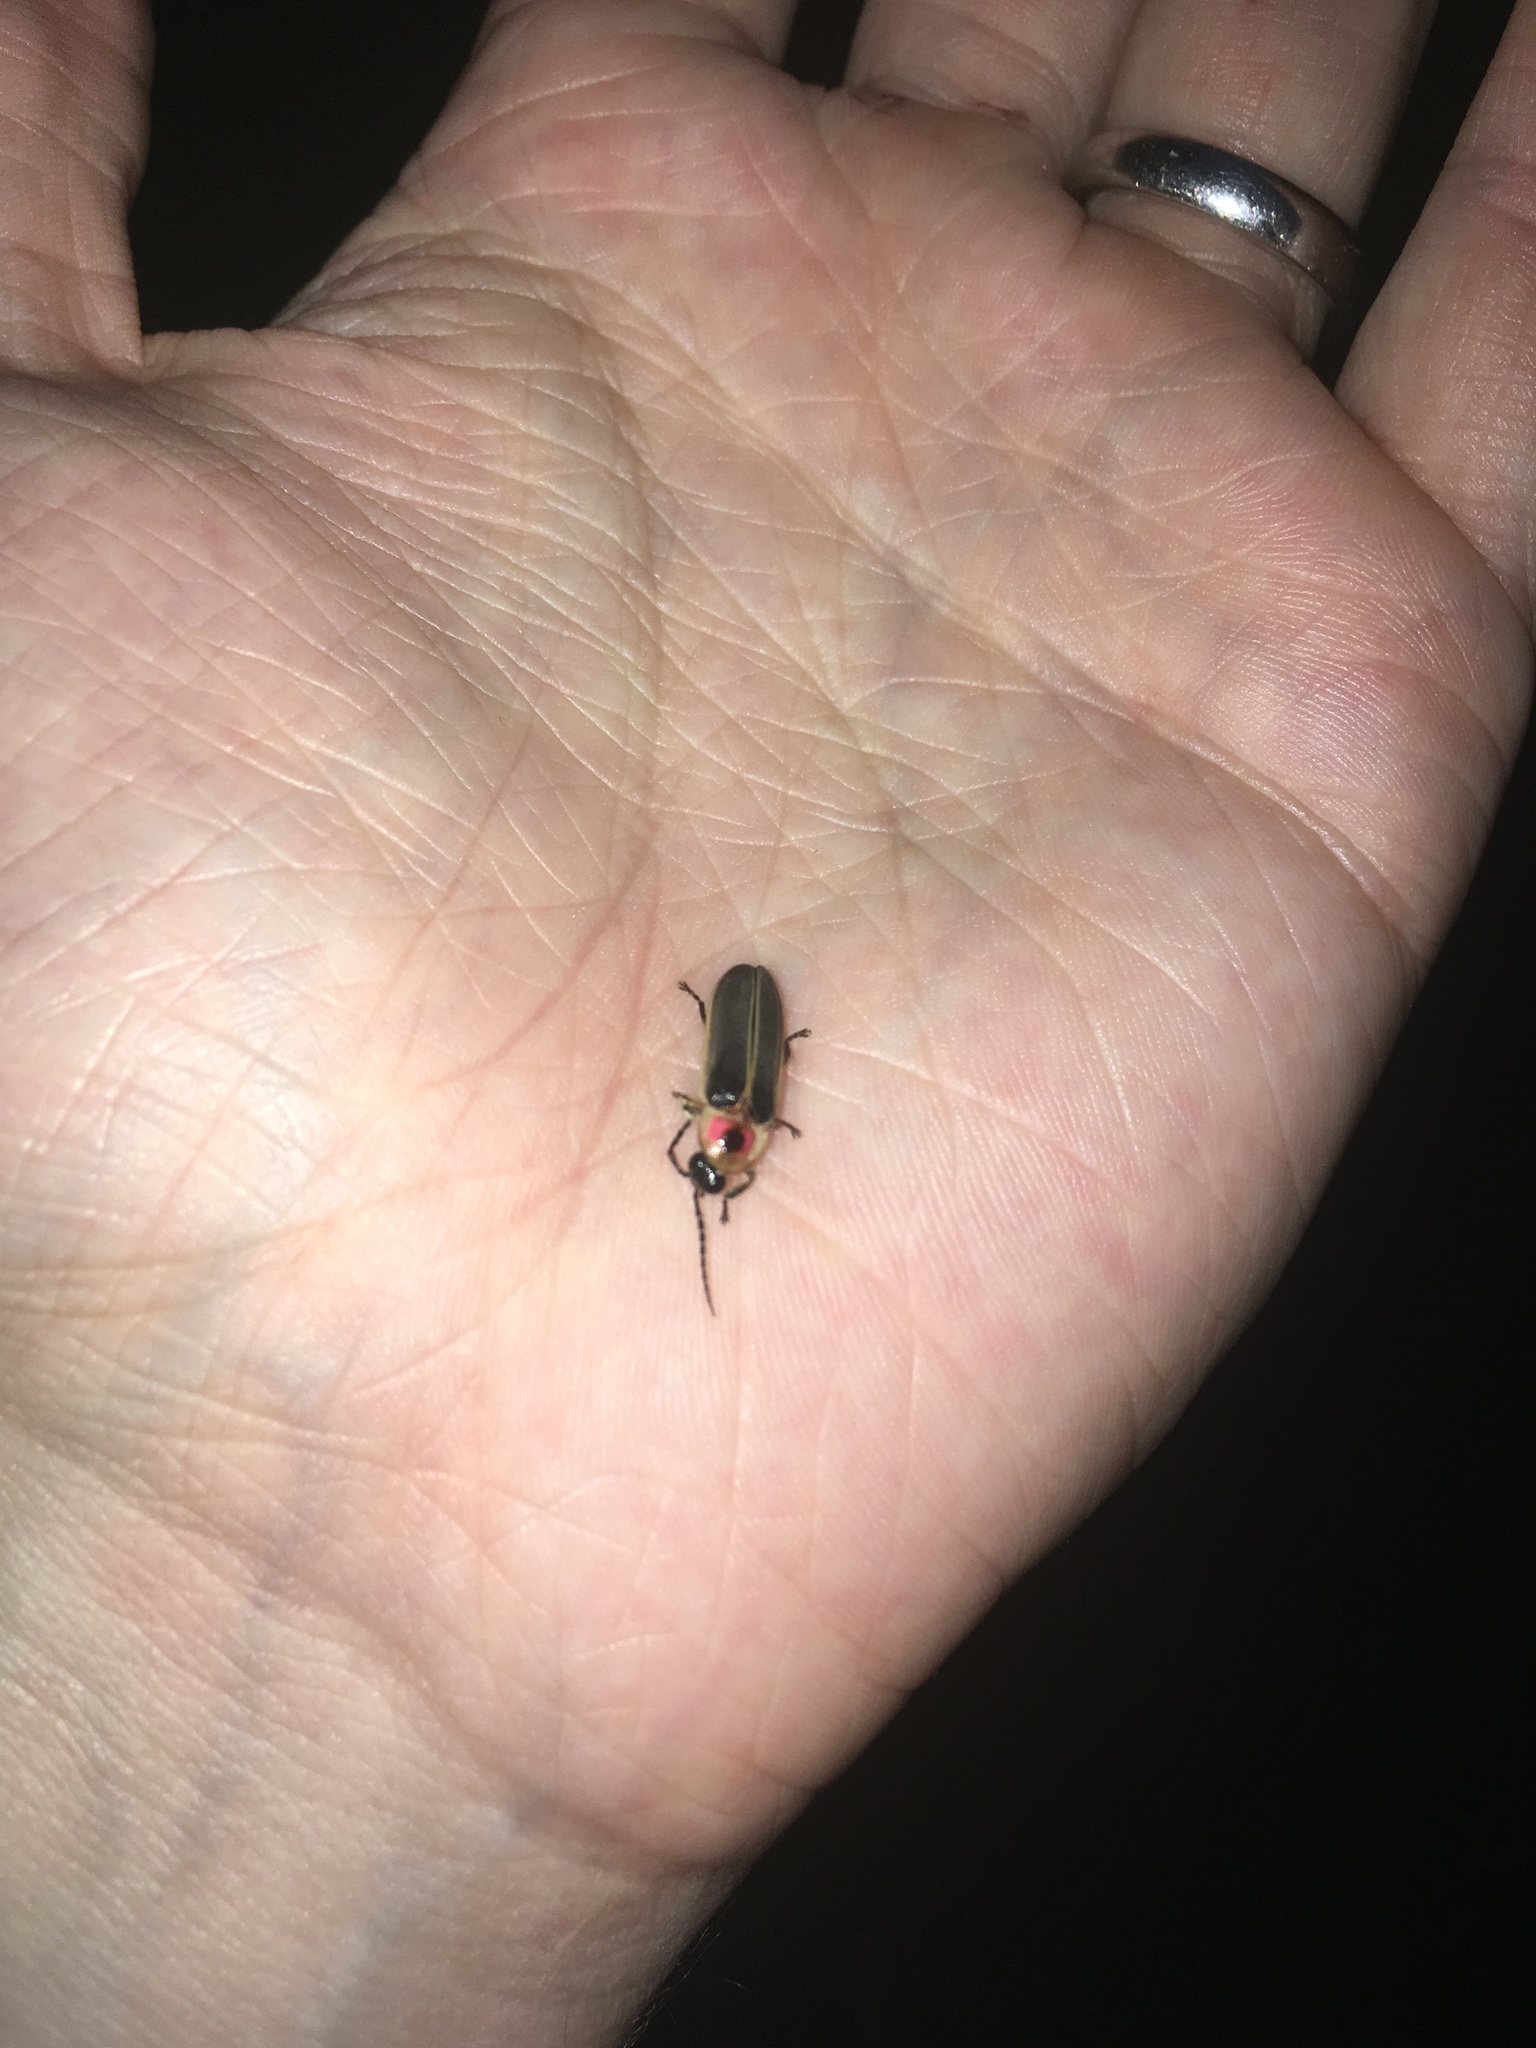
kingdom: Animalia
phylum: Arthropoda
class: Insecta
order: Coleoptera
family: Lampyridae
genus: Photinus
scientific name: Photinus pyralis
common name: Big dipper firefly
